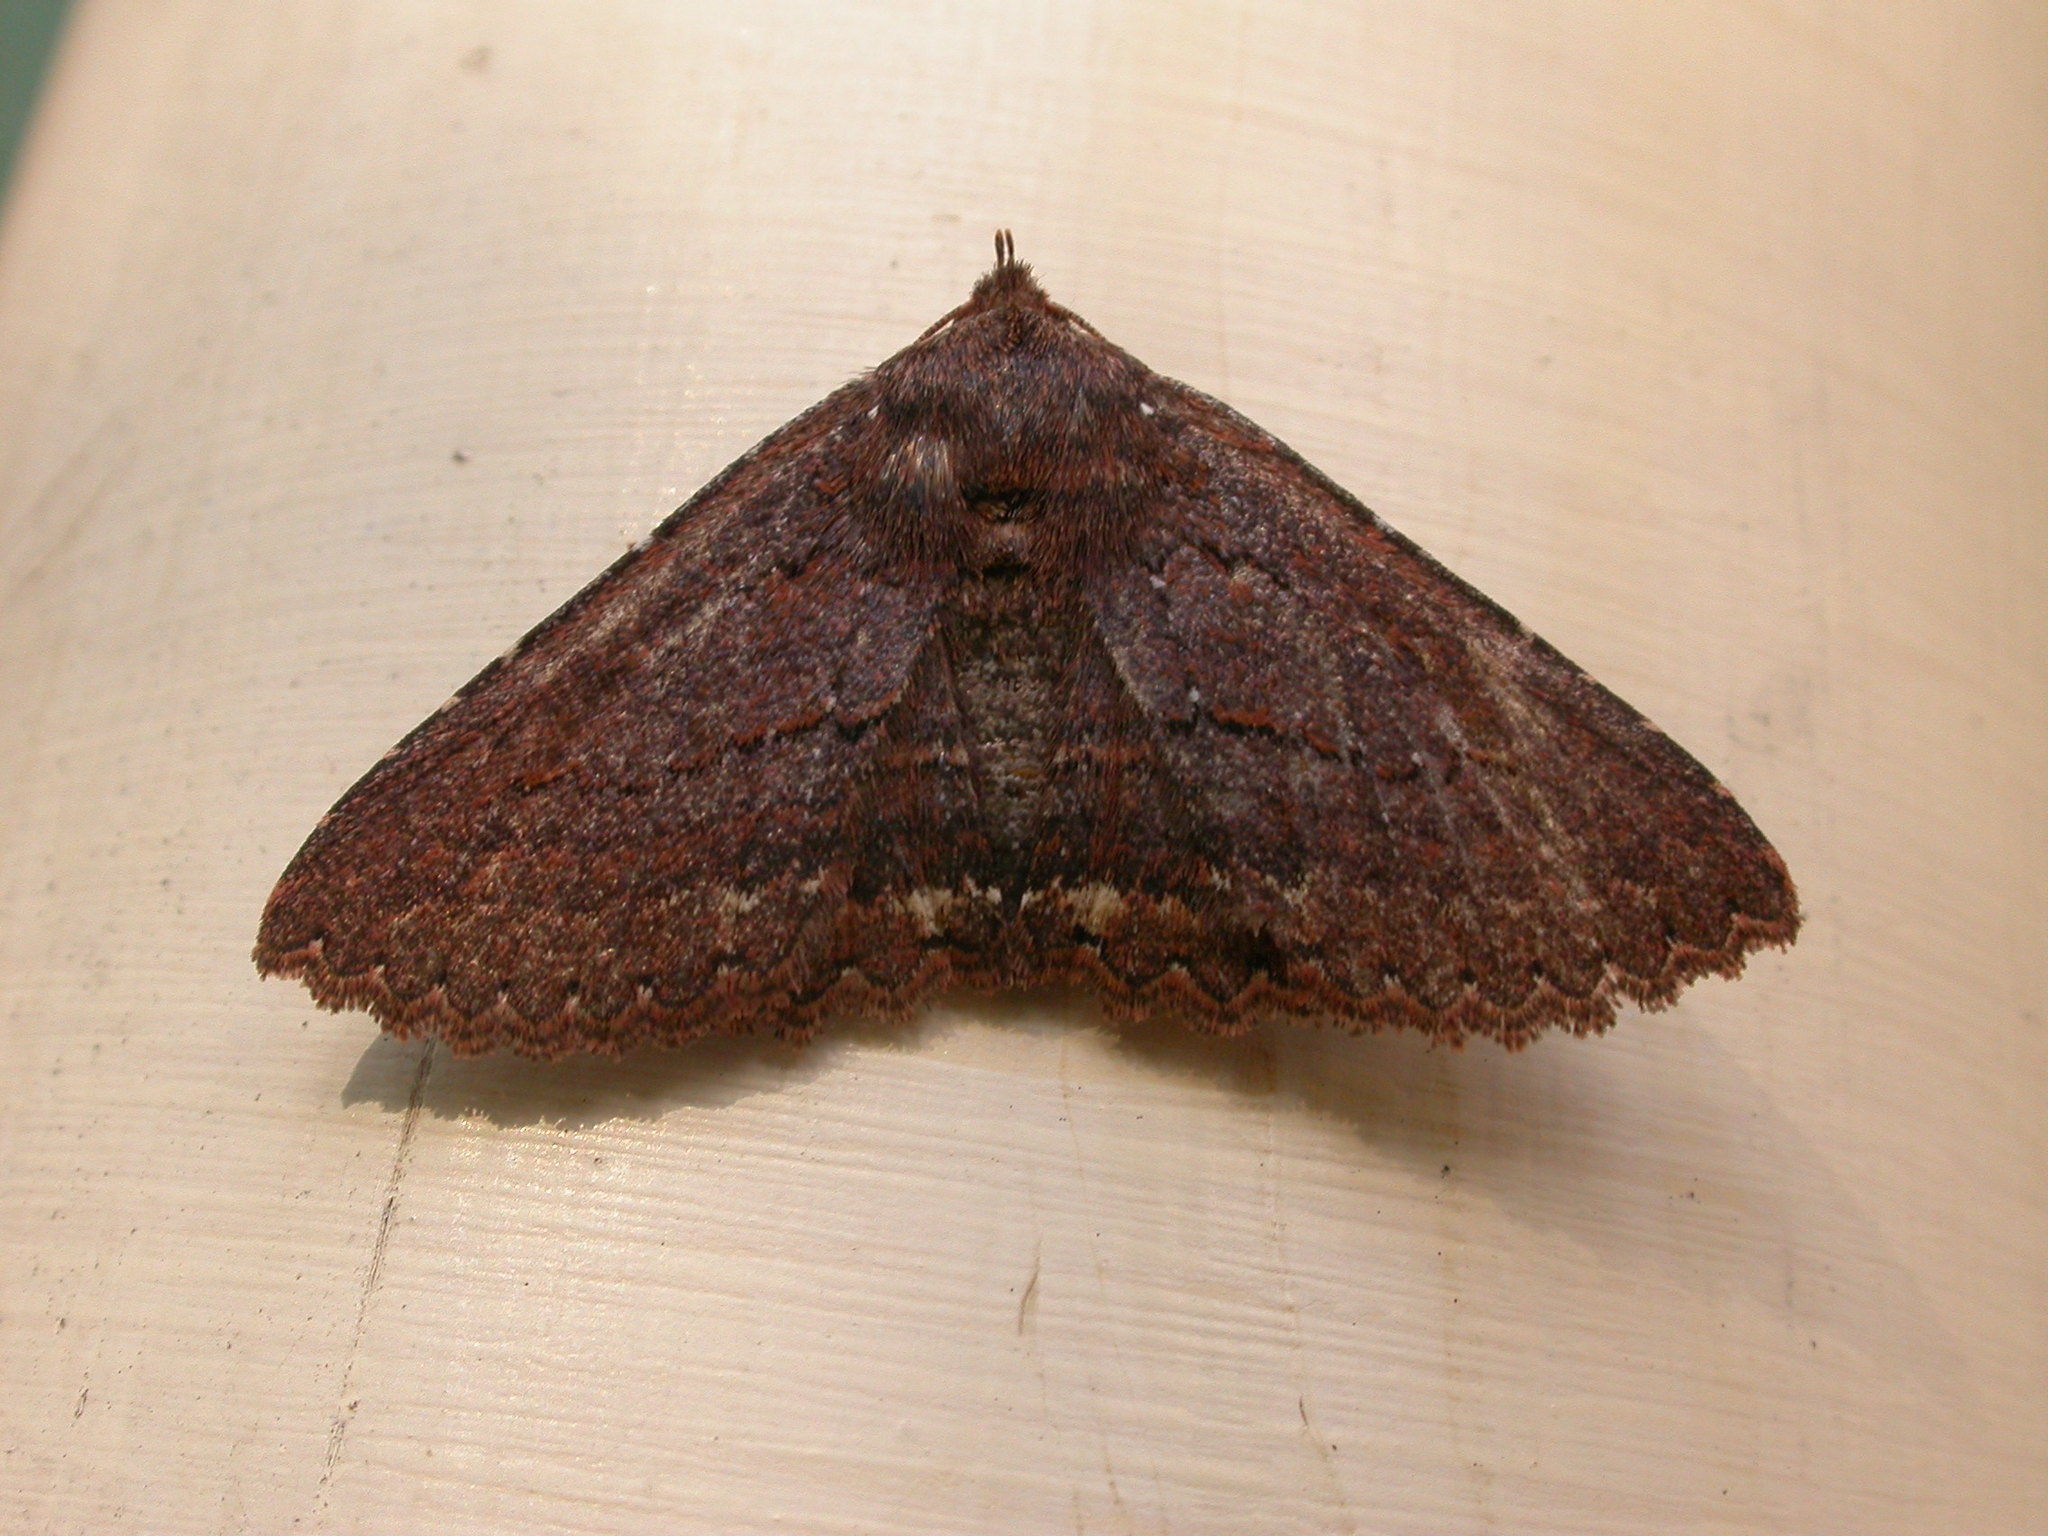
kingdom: Animalia
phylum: Arthropoda
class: Insecta
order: Lepidoptera
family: Erebidae
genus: Praxis
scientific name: Praxis porphyretica
